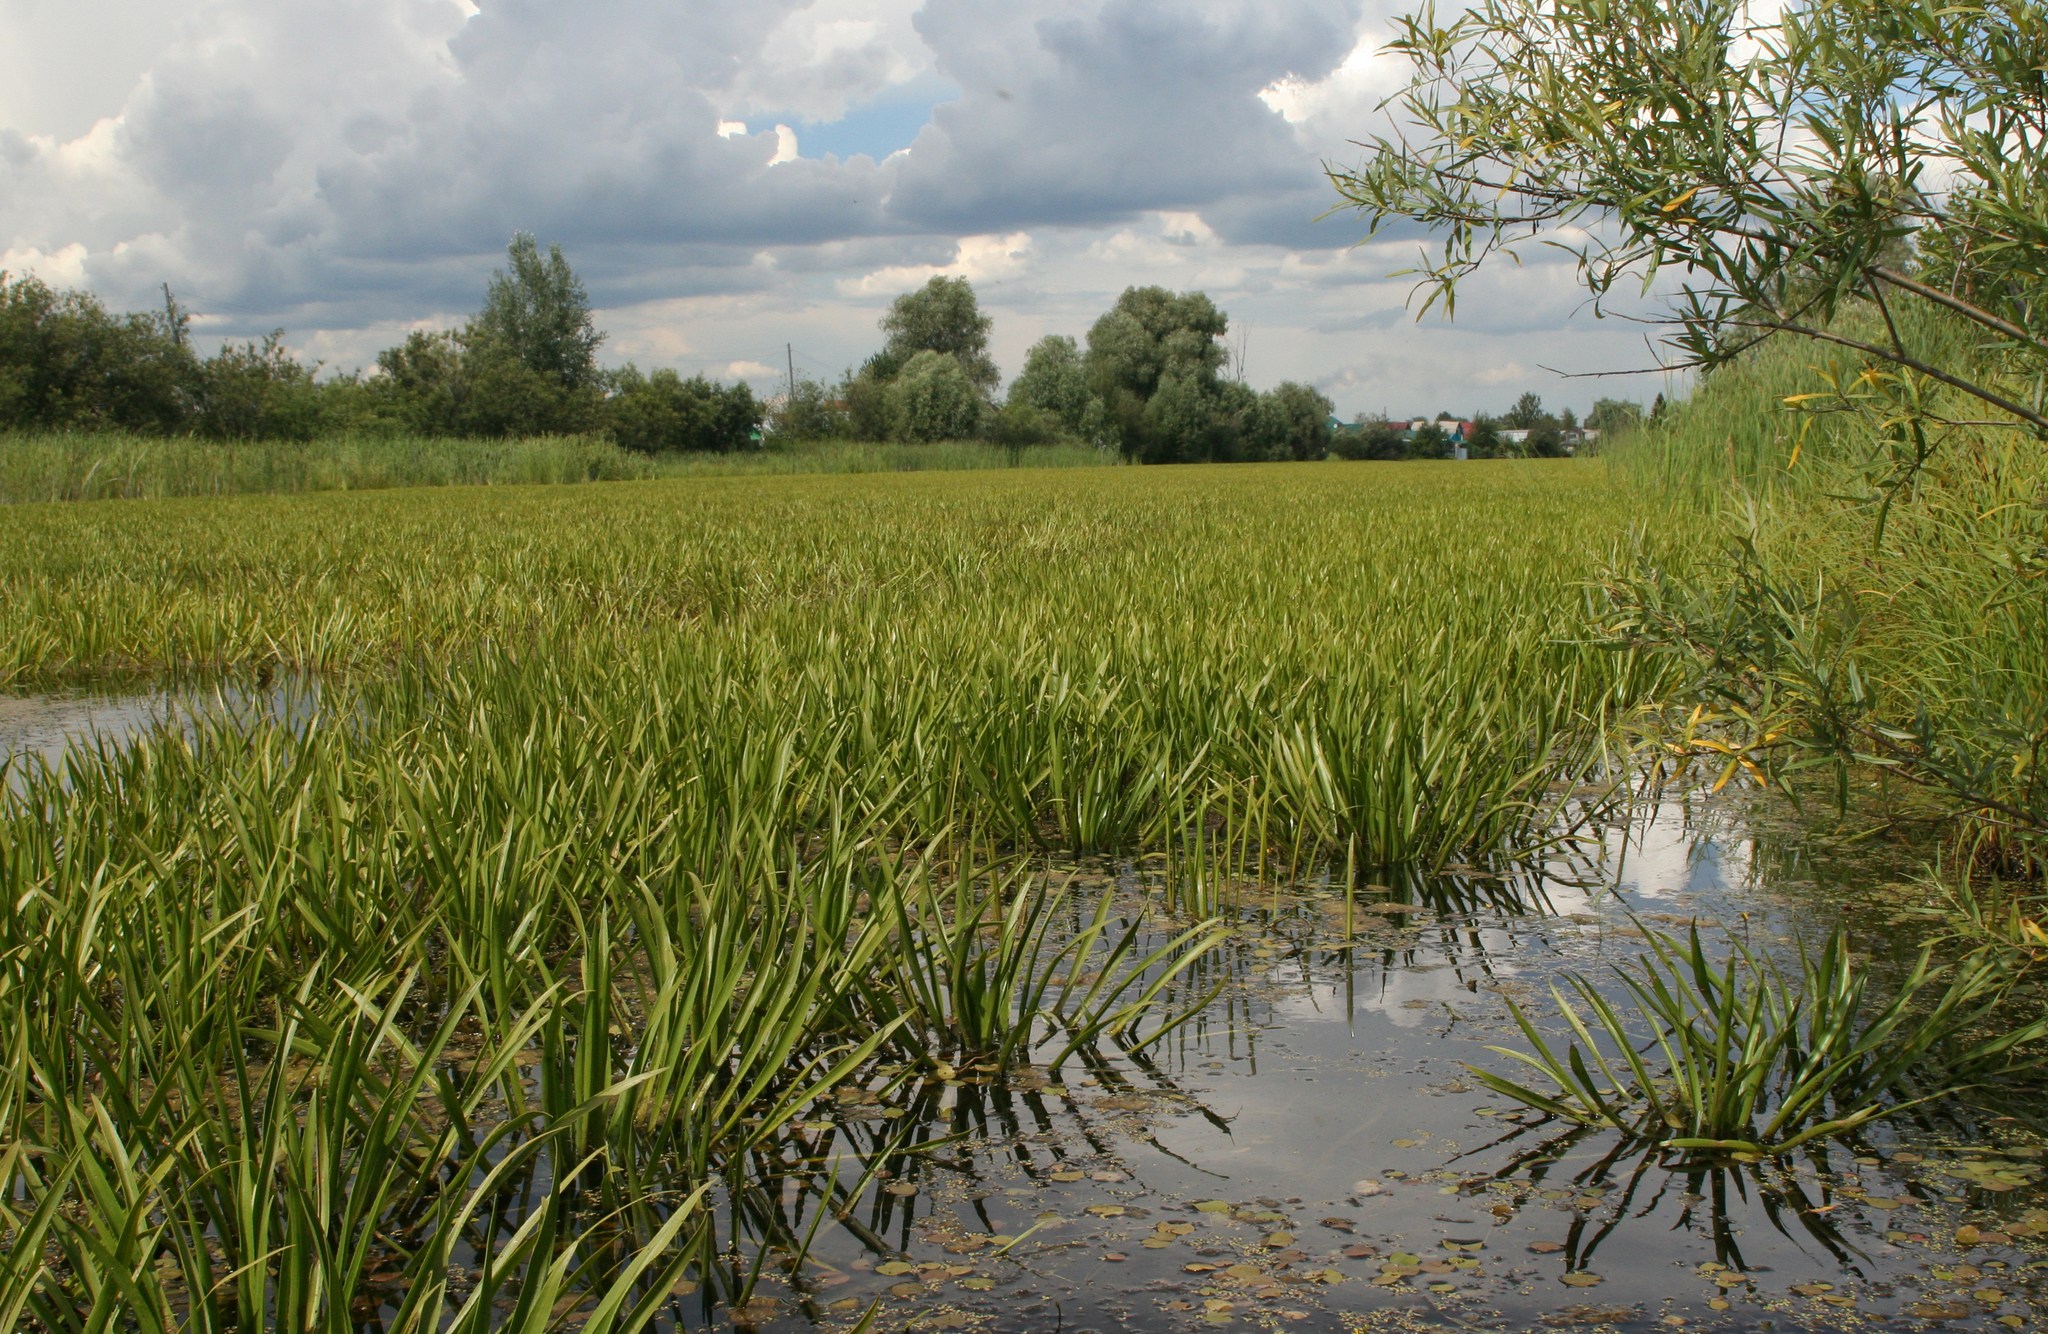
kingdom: Plantae
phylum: Tracheophyta
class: Liliopsida
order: Alismatales
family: Hydrocharitaceae
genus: Stratiotes
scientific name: Stratiotes aloides
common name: Water-soldier
